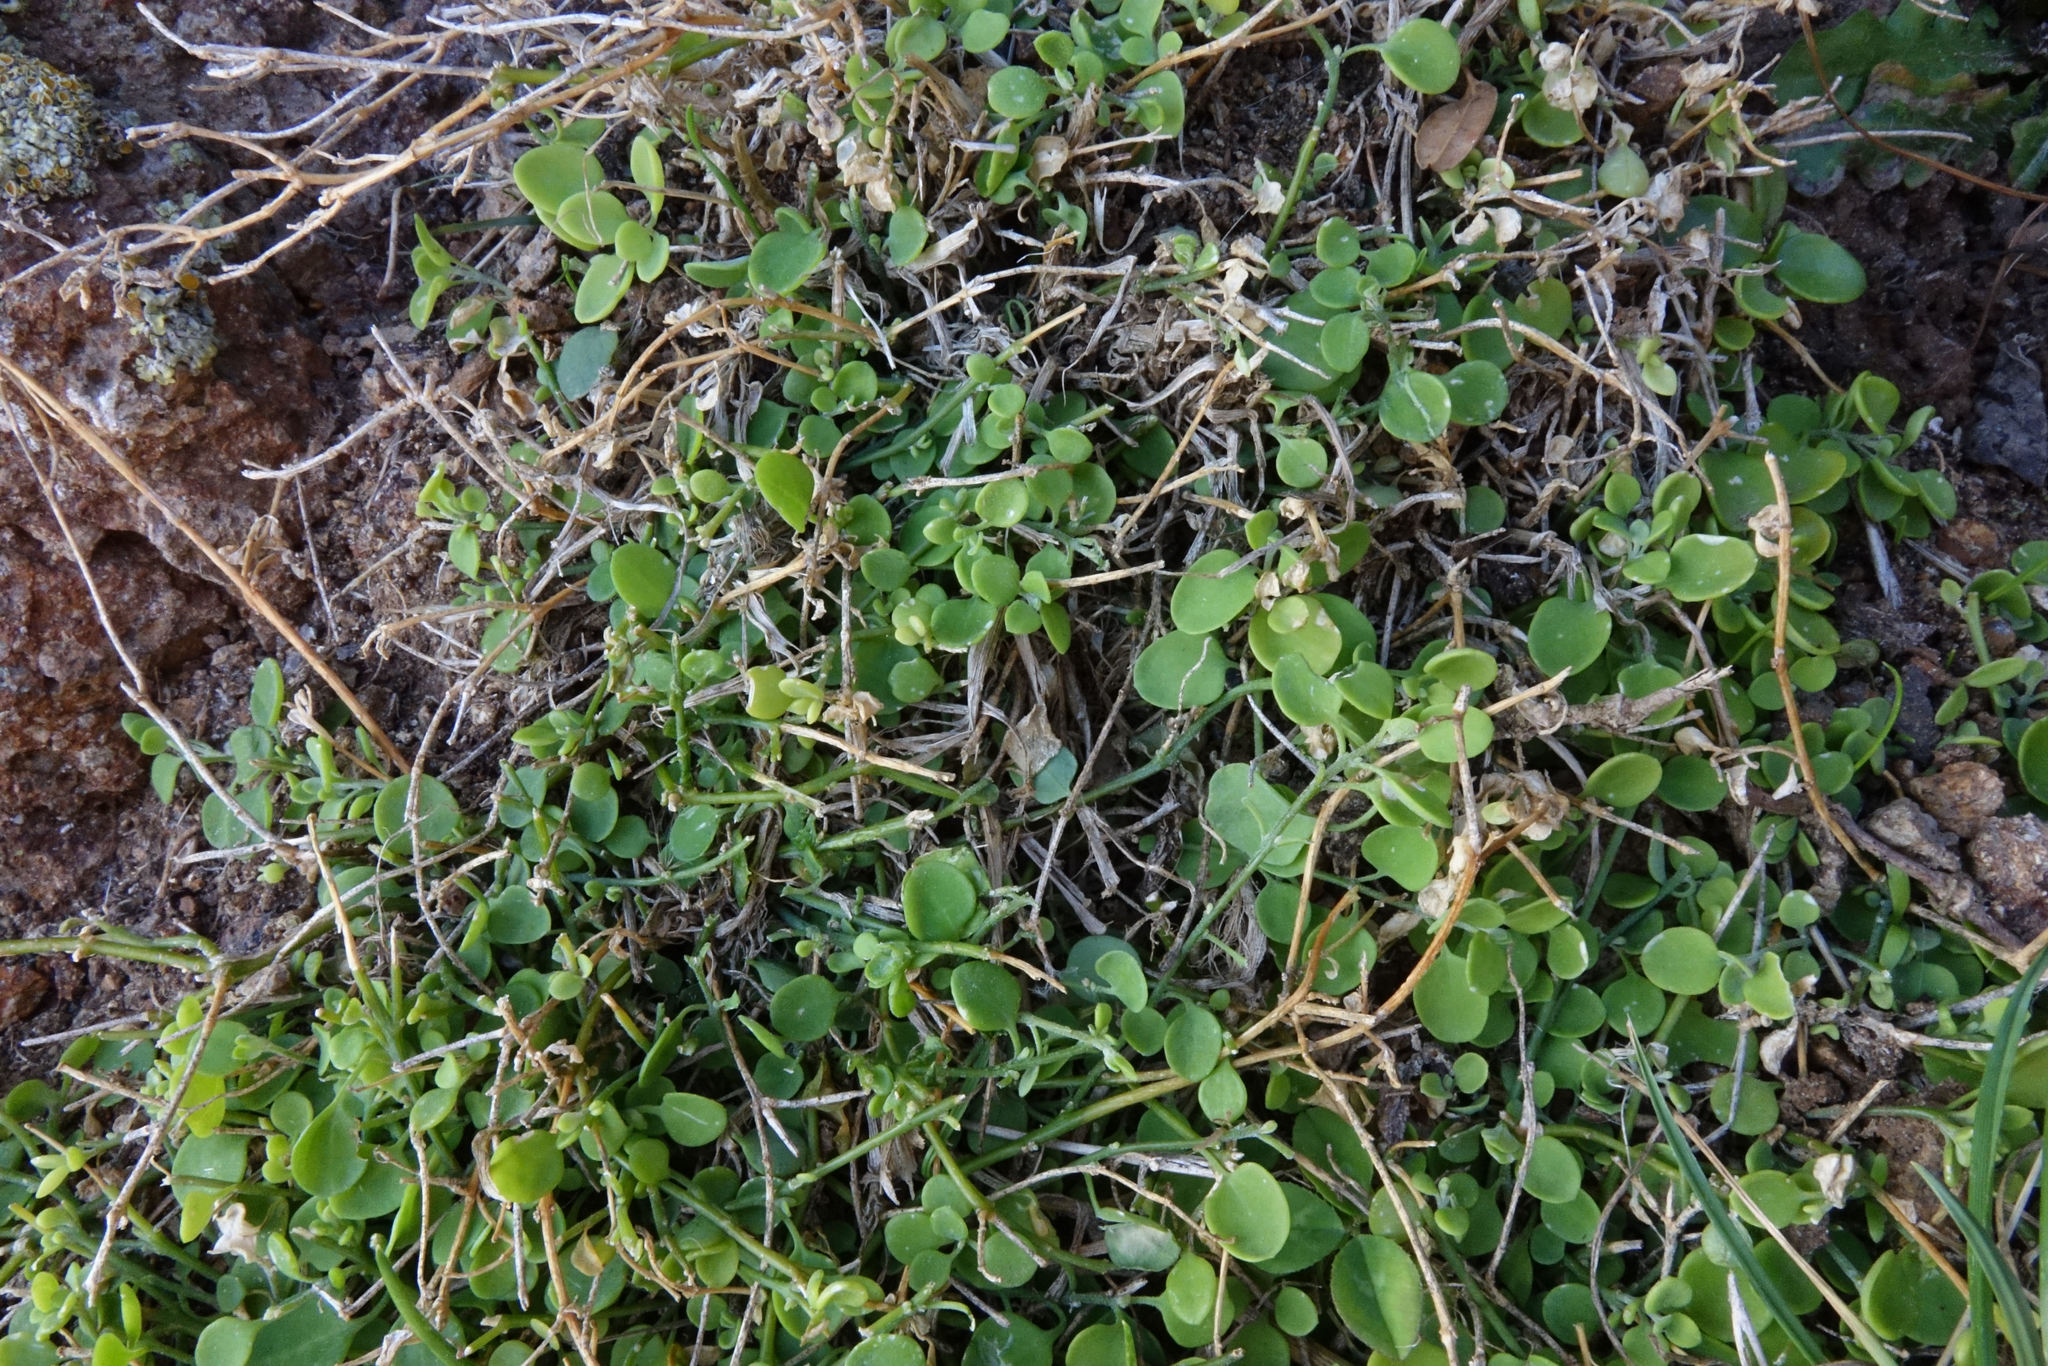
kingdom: Plantae
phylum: Tracheophyta
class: Magnoliopsida
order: Caryophyllales
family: Amaranthaceae
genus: Chenopodium
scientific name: Chenopodium allanii
